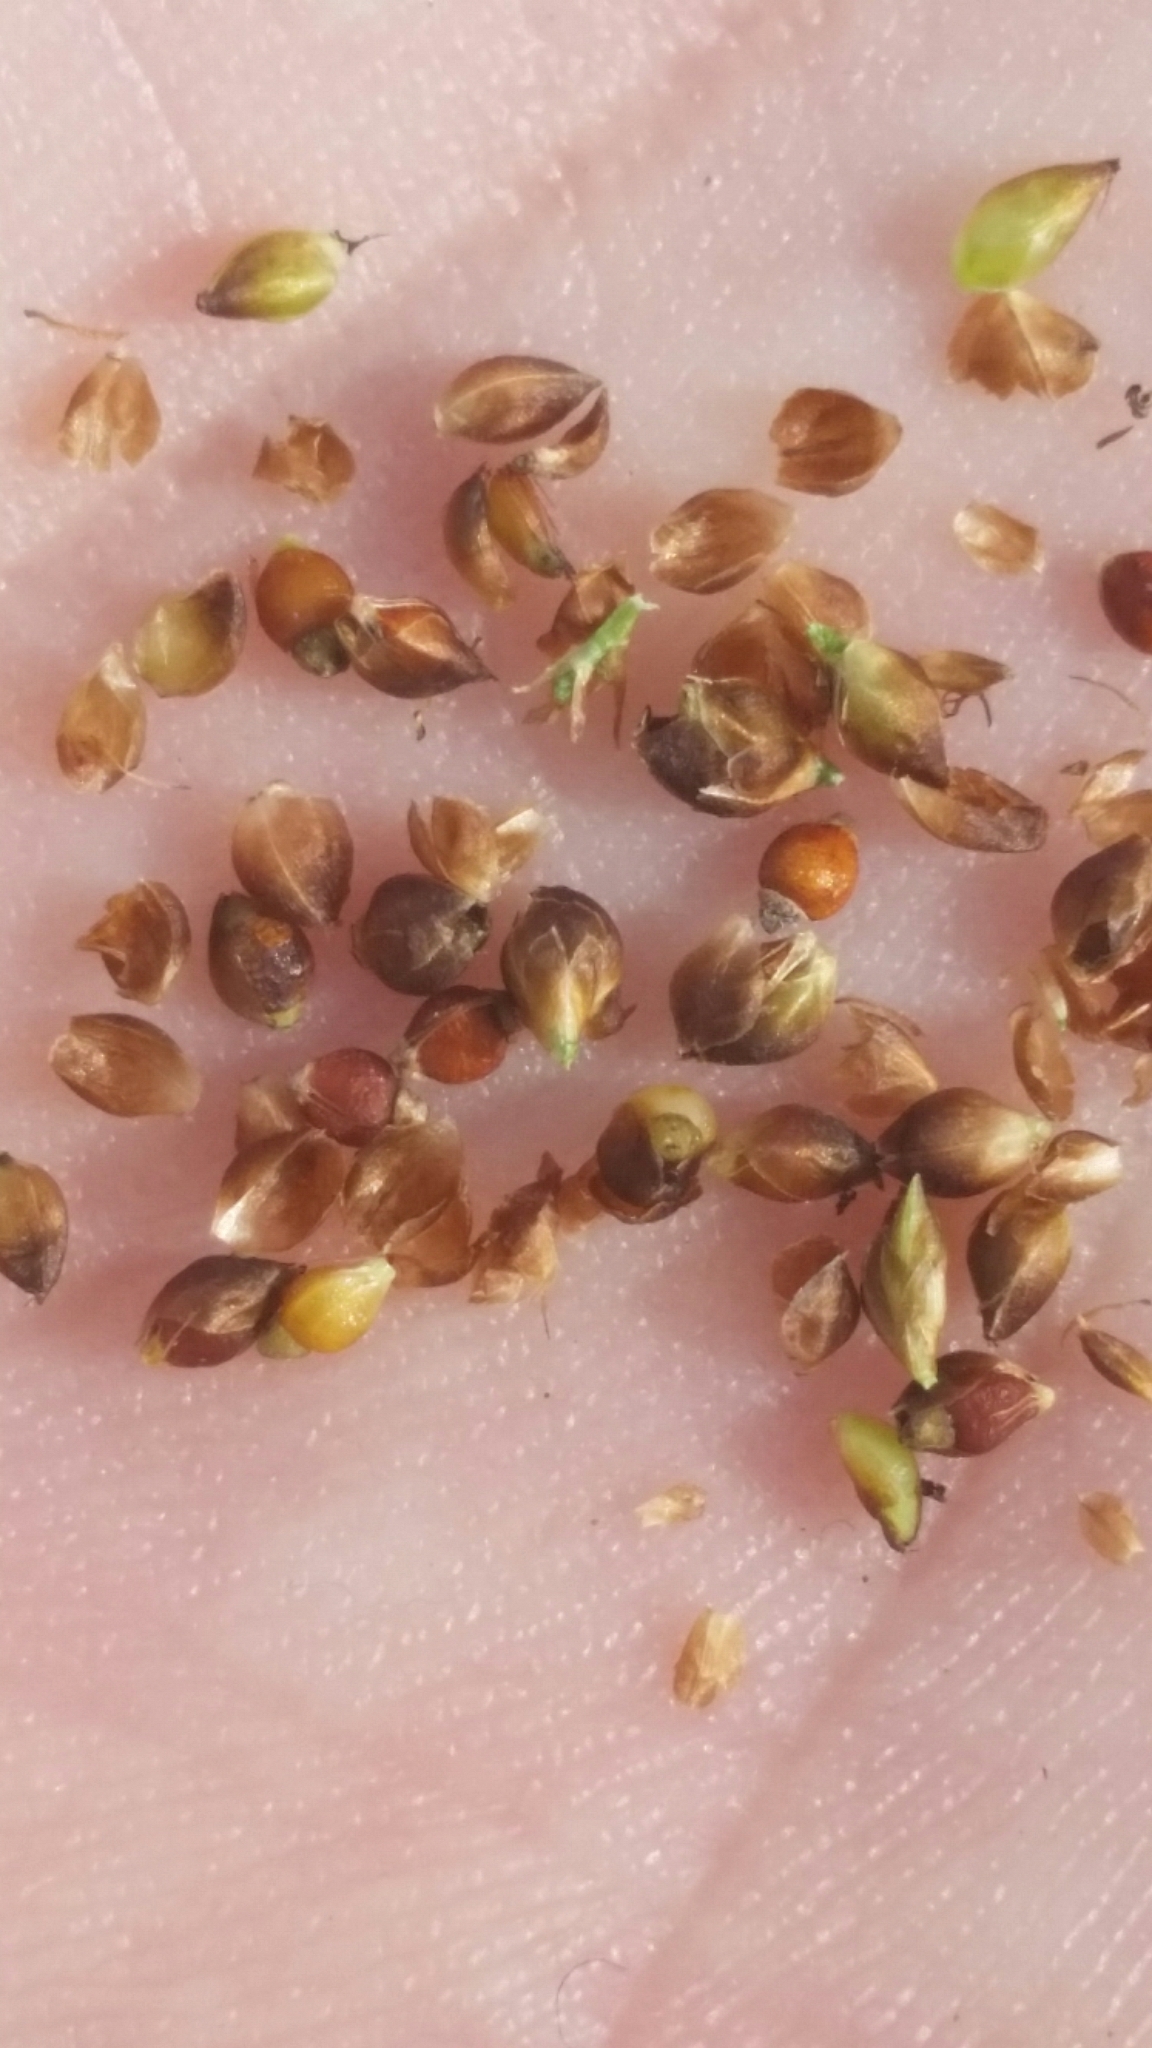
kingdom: Plantae
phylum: Tracheophyta
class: Liliopsida
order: Poales
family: Cyperaceae
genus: Rhynchospora
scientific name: Rhynchospora globularis
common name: Globe beaksedge
